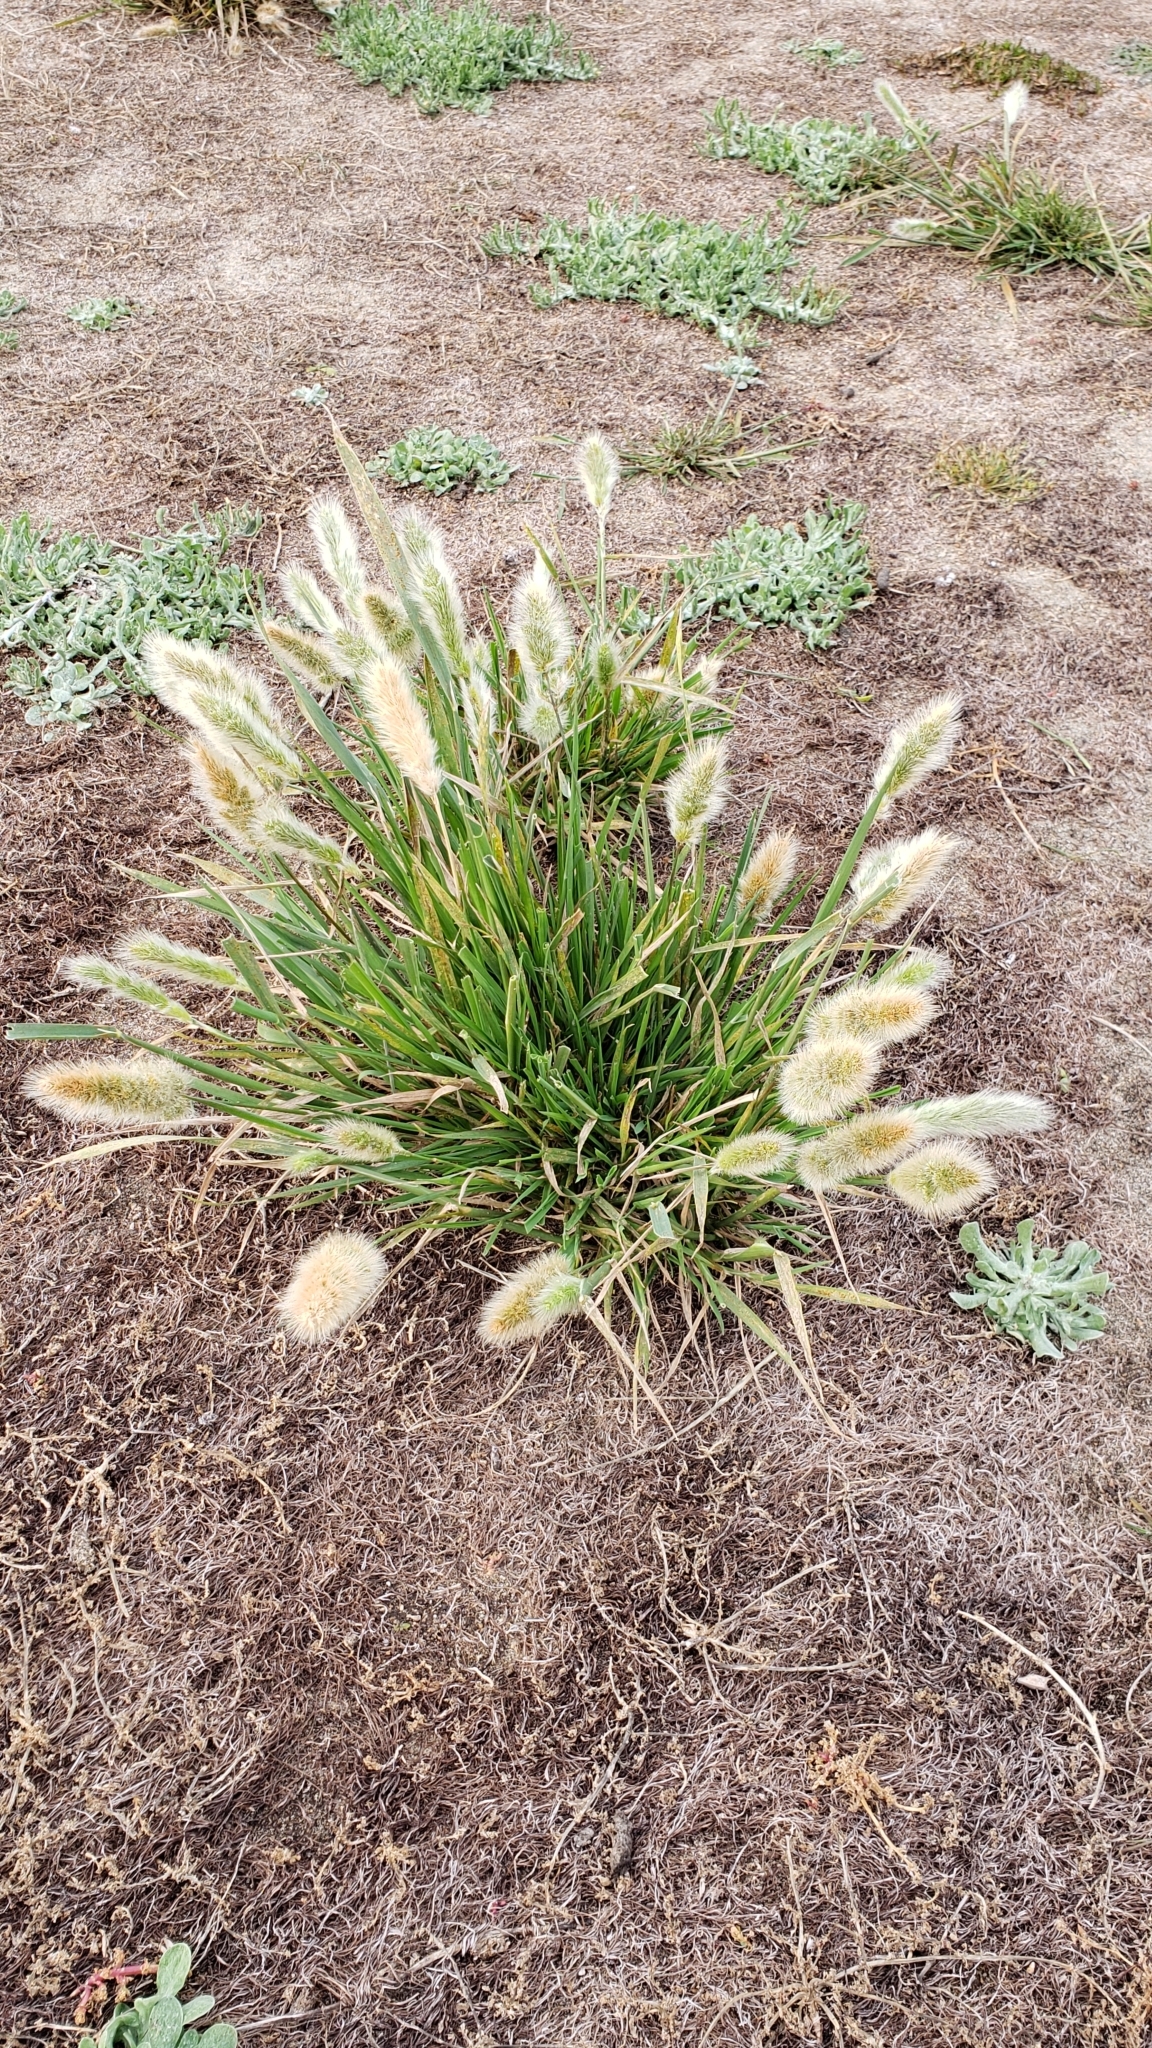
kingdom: Plantae
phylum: Tracheophyta
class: Liliopsida
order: Poales
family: Poaceae
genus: Polypogon
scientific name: Polypogon monspeliensis
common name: Annual rabbitsfoot grass
